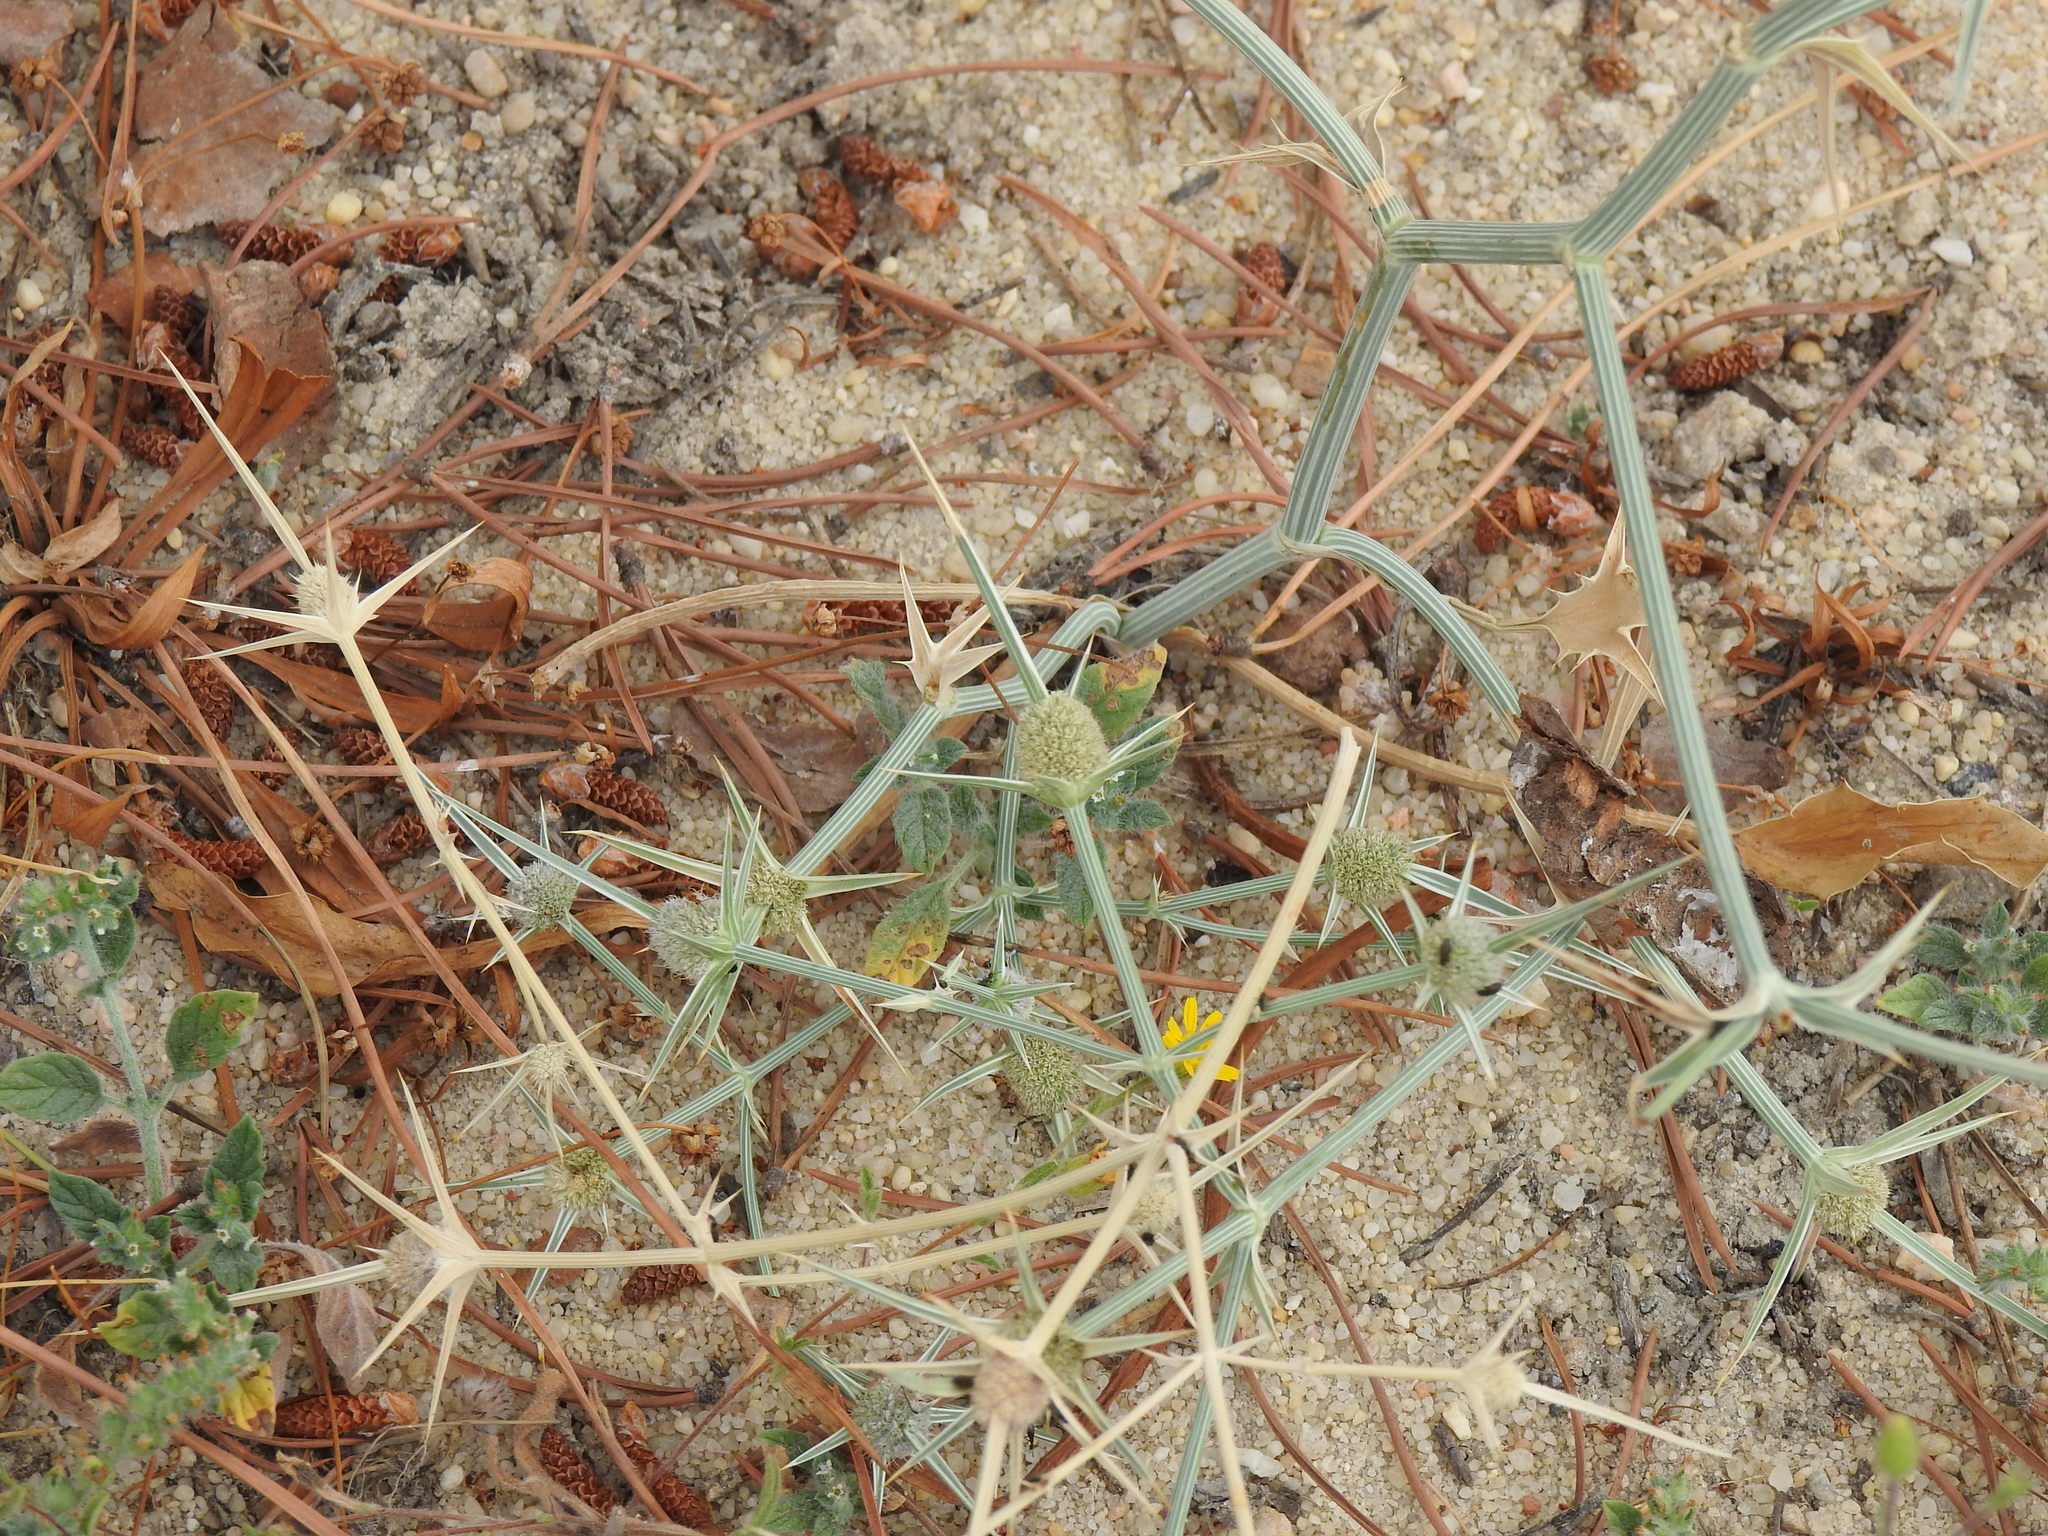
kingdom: Plantae
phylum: Tracheophyta
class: Magnoliopsida
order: Apiales
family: Apiaceae
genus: Eryngium
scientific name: Eryngium corniculatum
